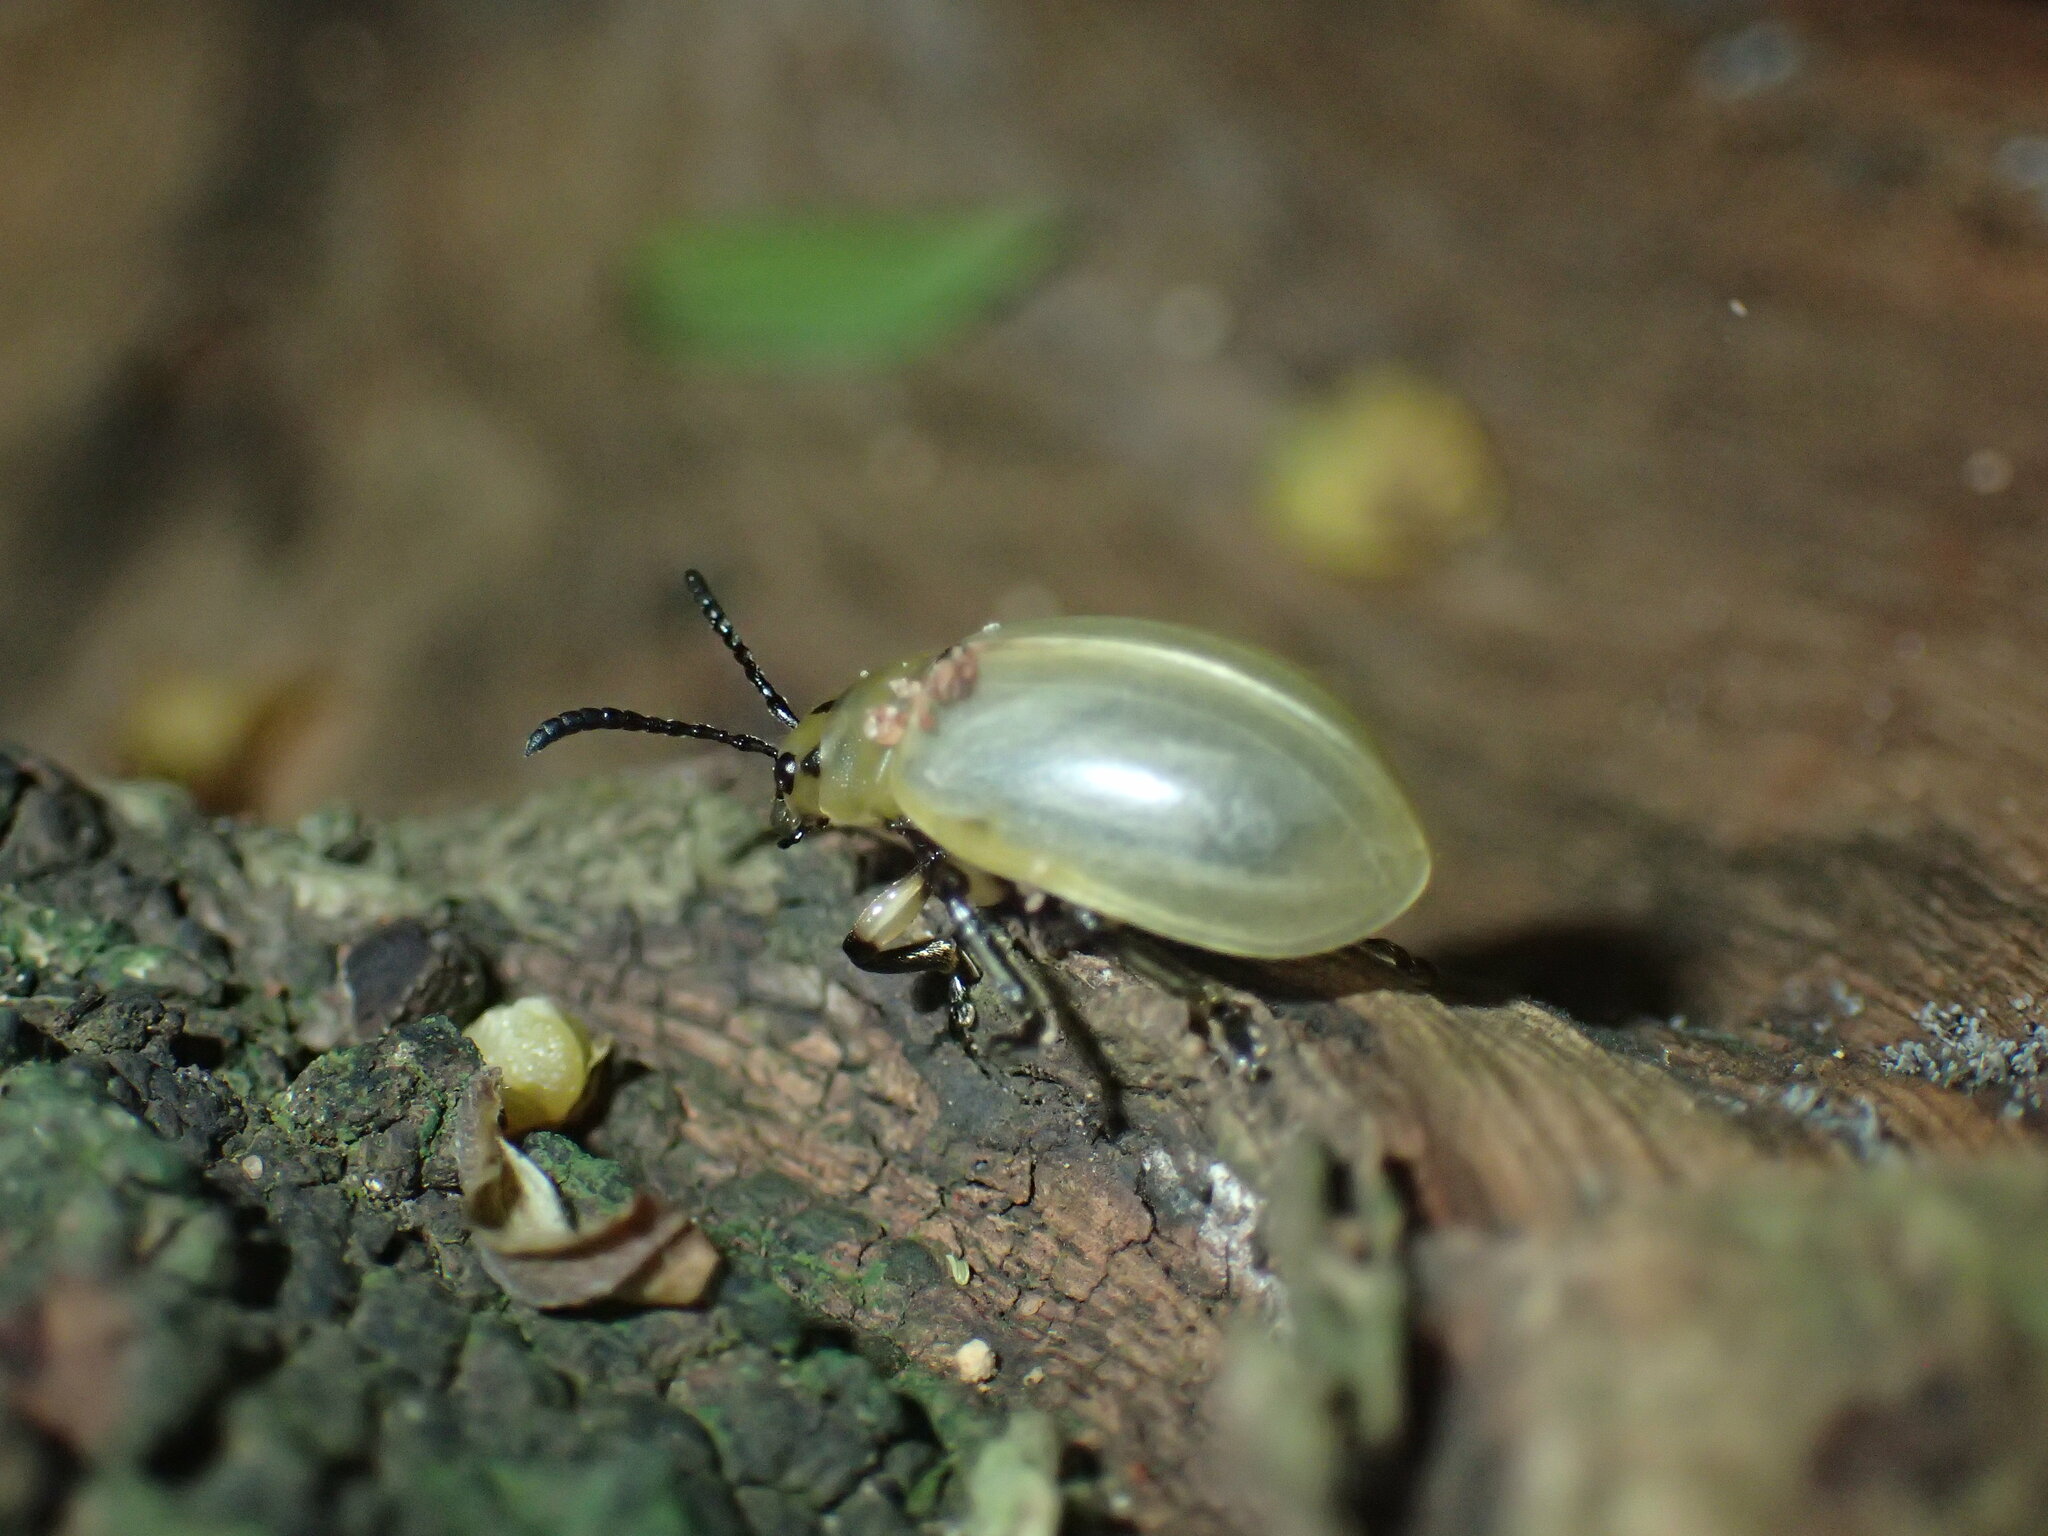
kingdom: Animalia
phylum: Arthropoda
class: Insecta
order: Coleoptera
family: Chrysomelidae
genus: Cerochroa
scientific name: Cerochroa
